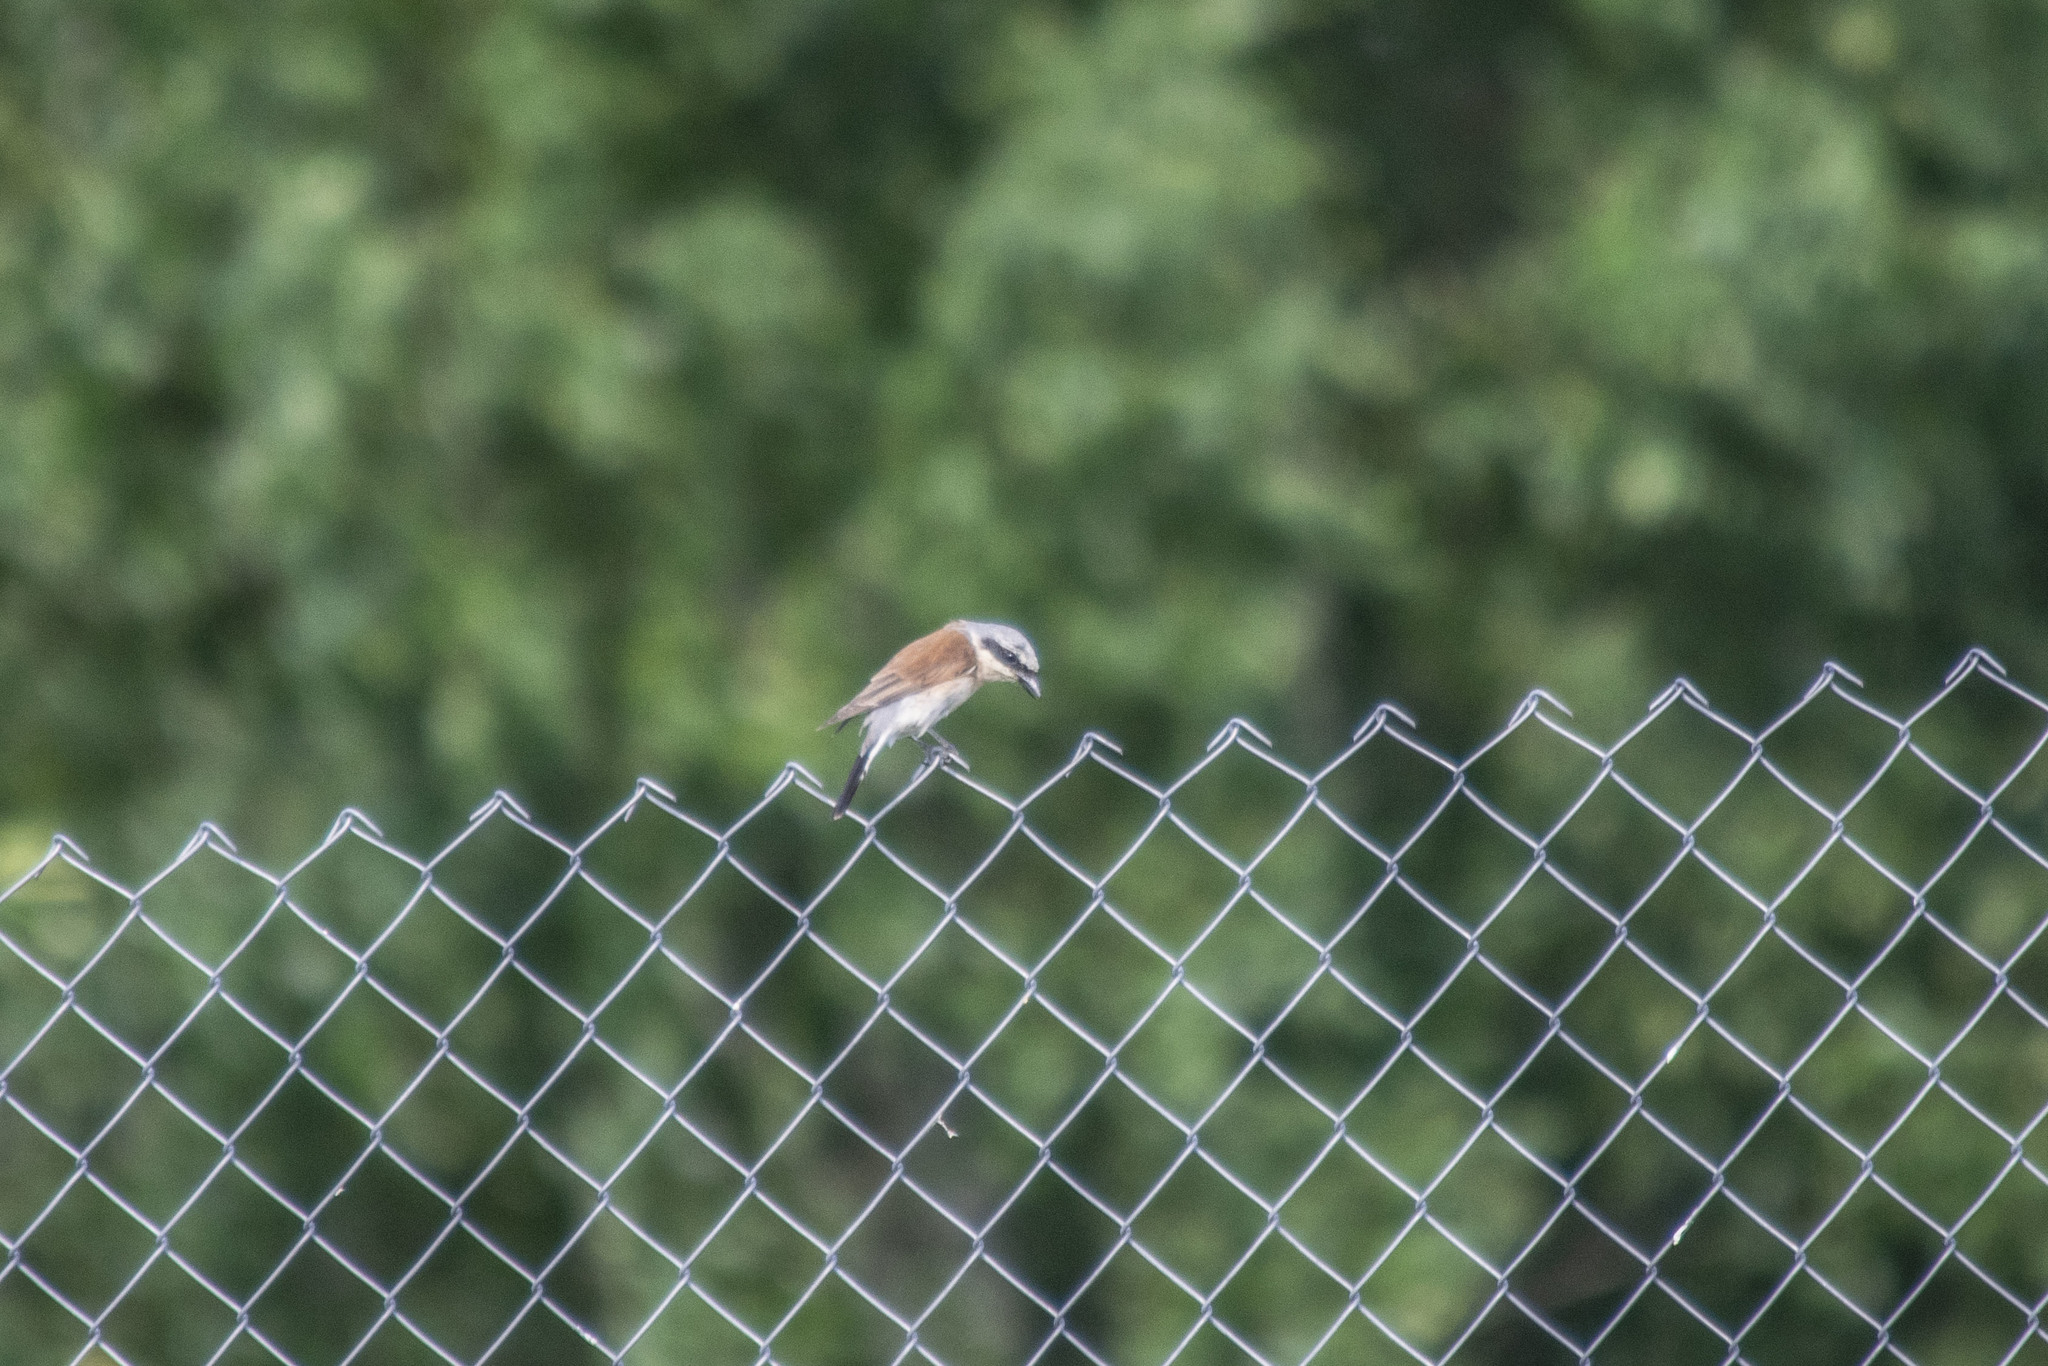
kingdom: Animalia
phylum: Chordata
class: Aves
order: Passeriformes
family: Laniidae
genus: Lanius
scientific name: Lanius collurio
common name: Red-backed shrike
